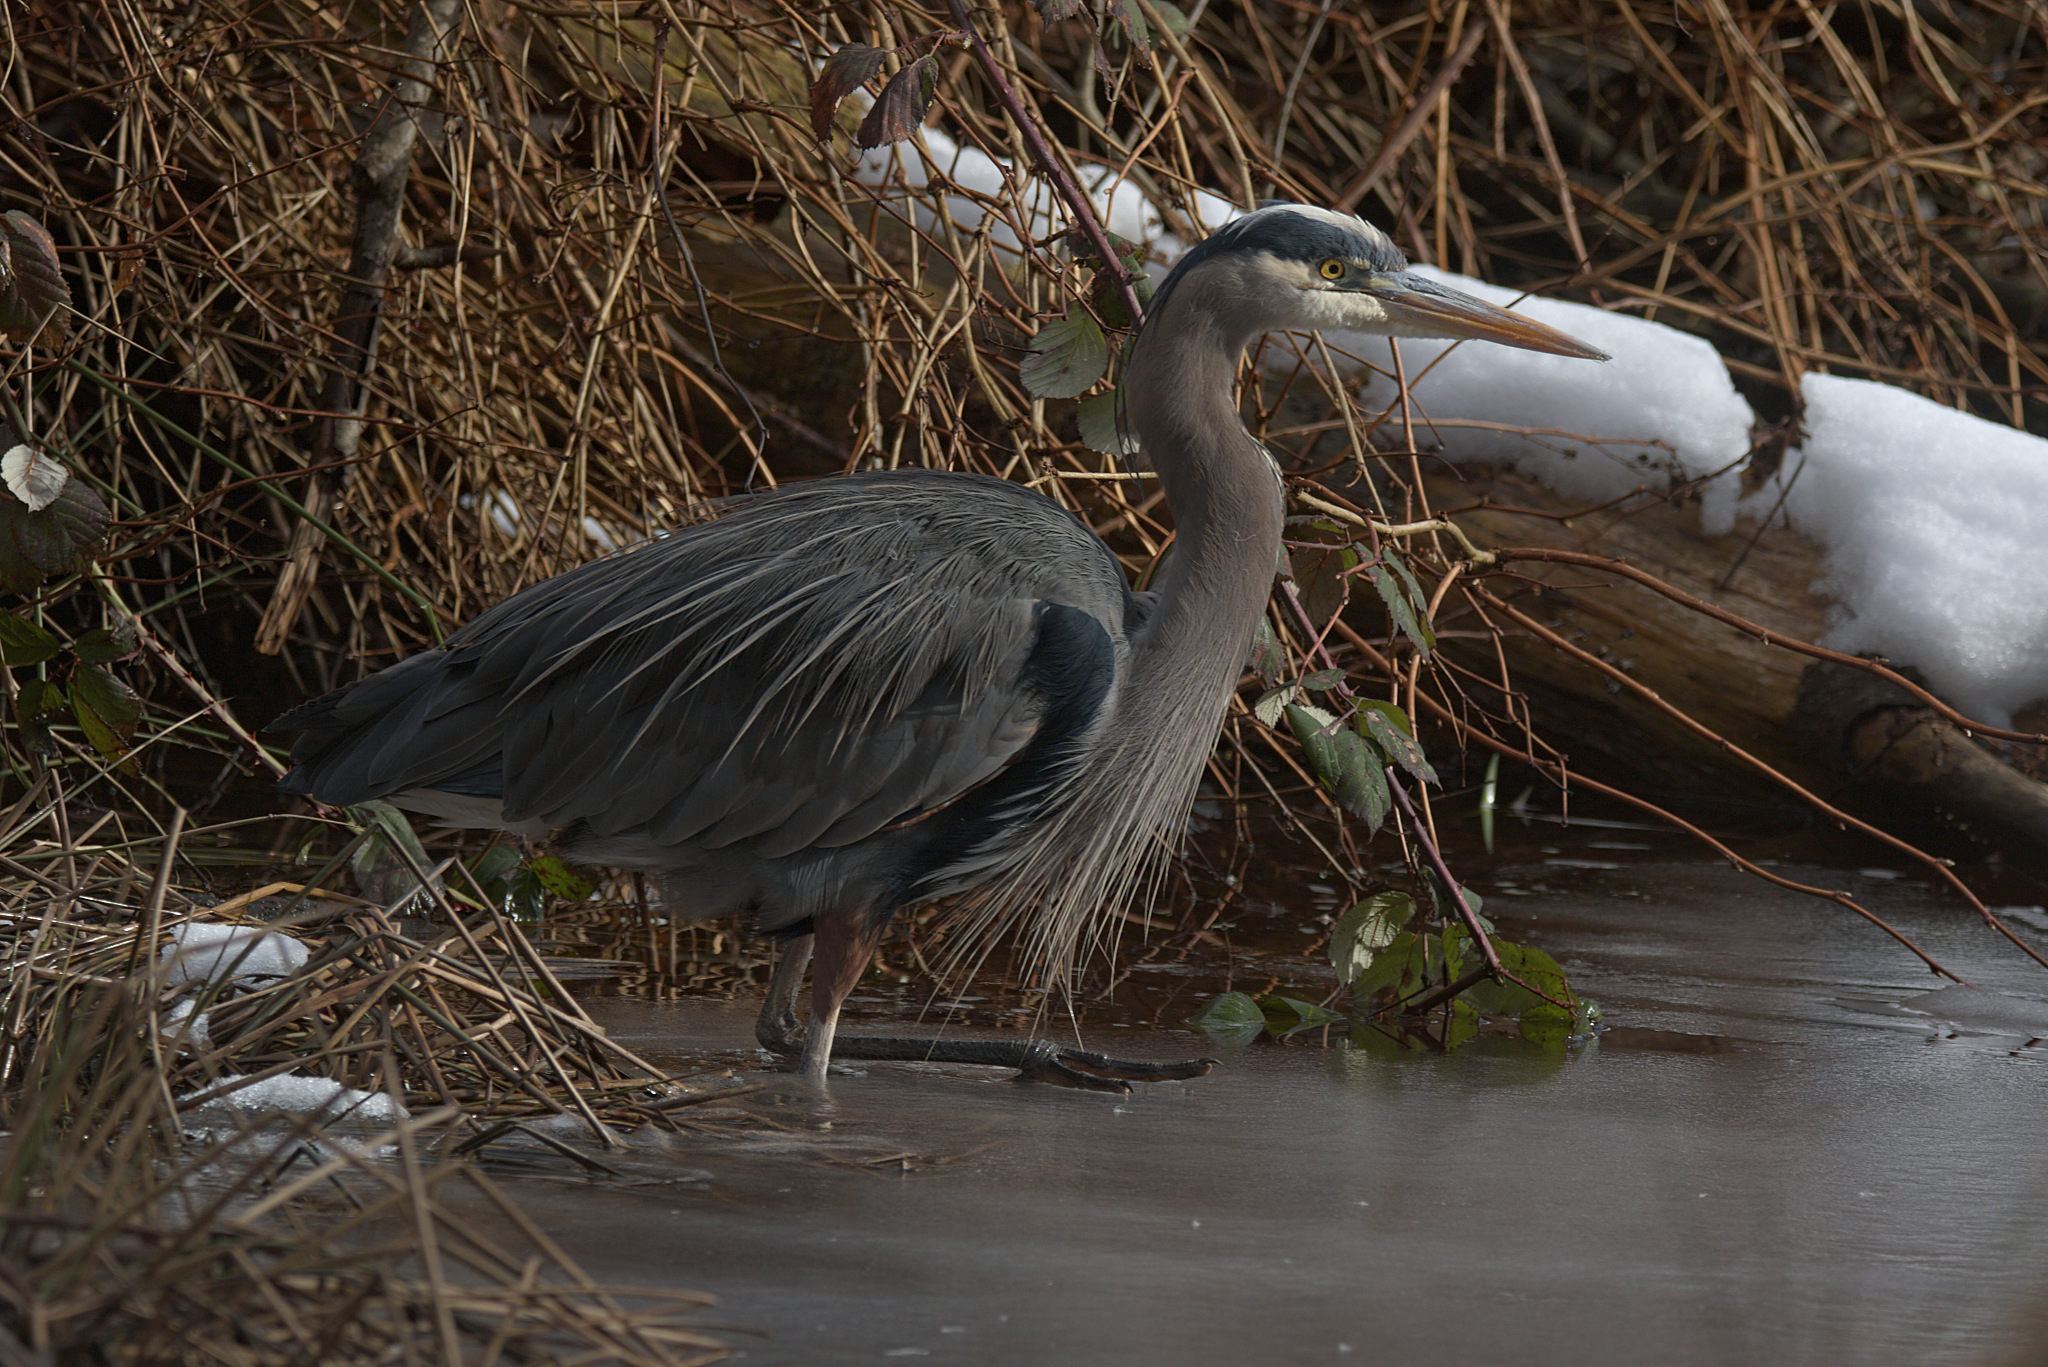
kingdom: Animalia
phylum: Chordata
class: Aves
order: Pelecaniformes
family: Ardeidae
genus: Ardea
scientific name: Ardea herodias
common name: Great blue heron
